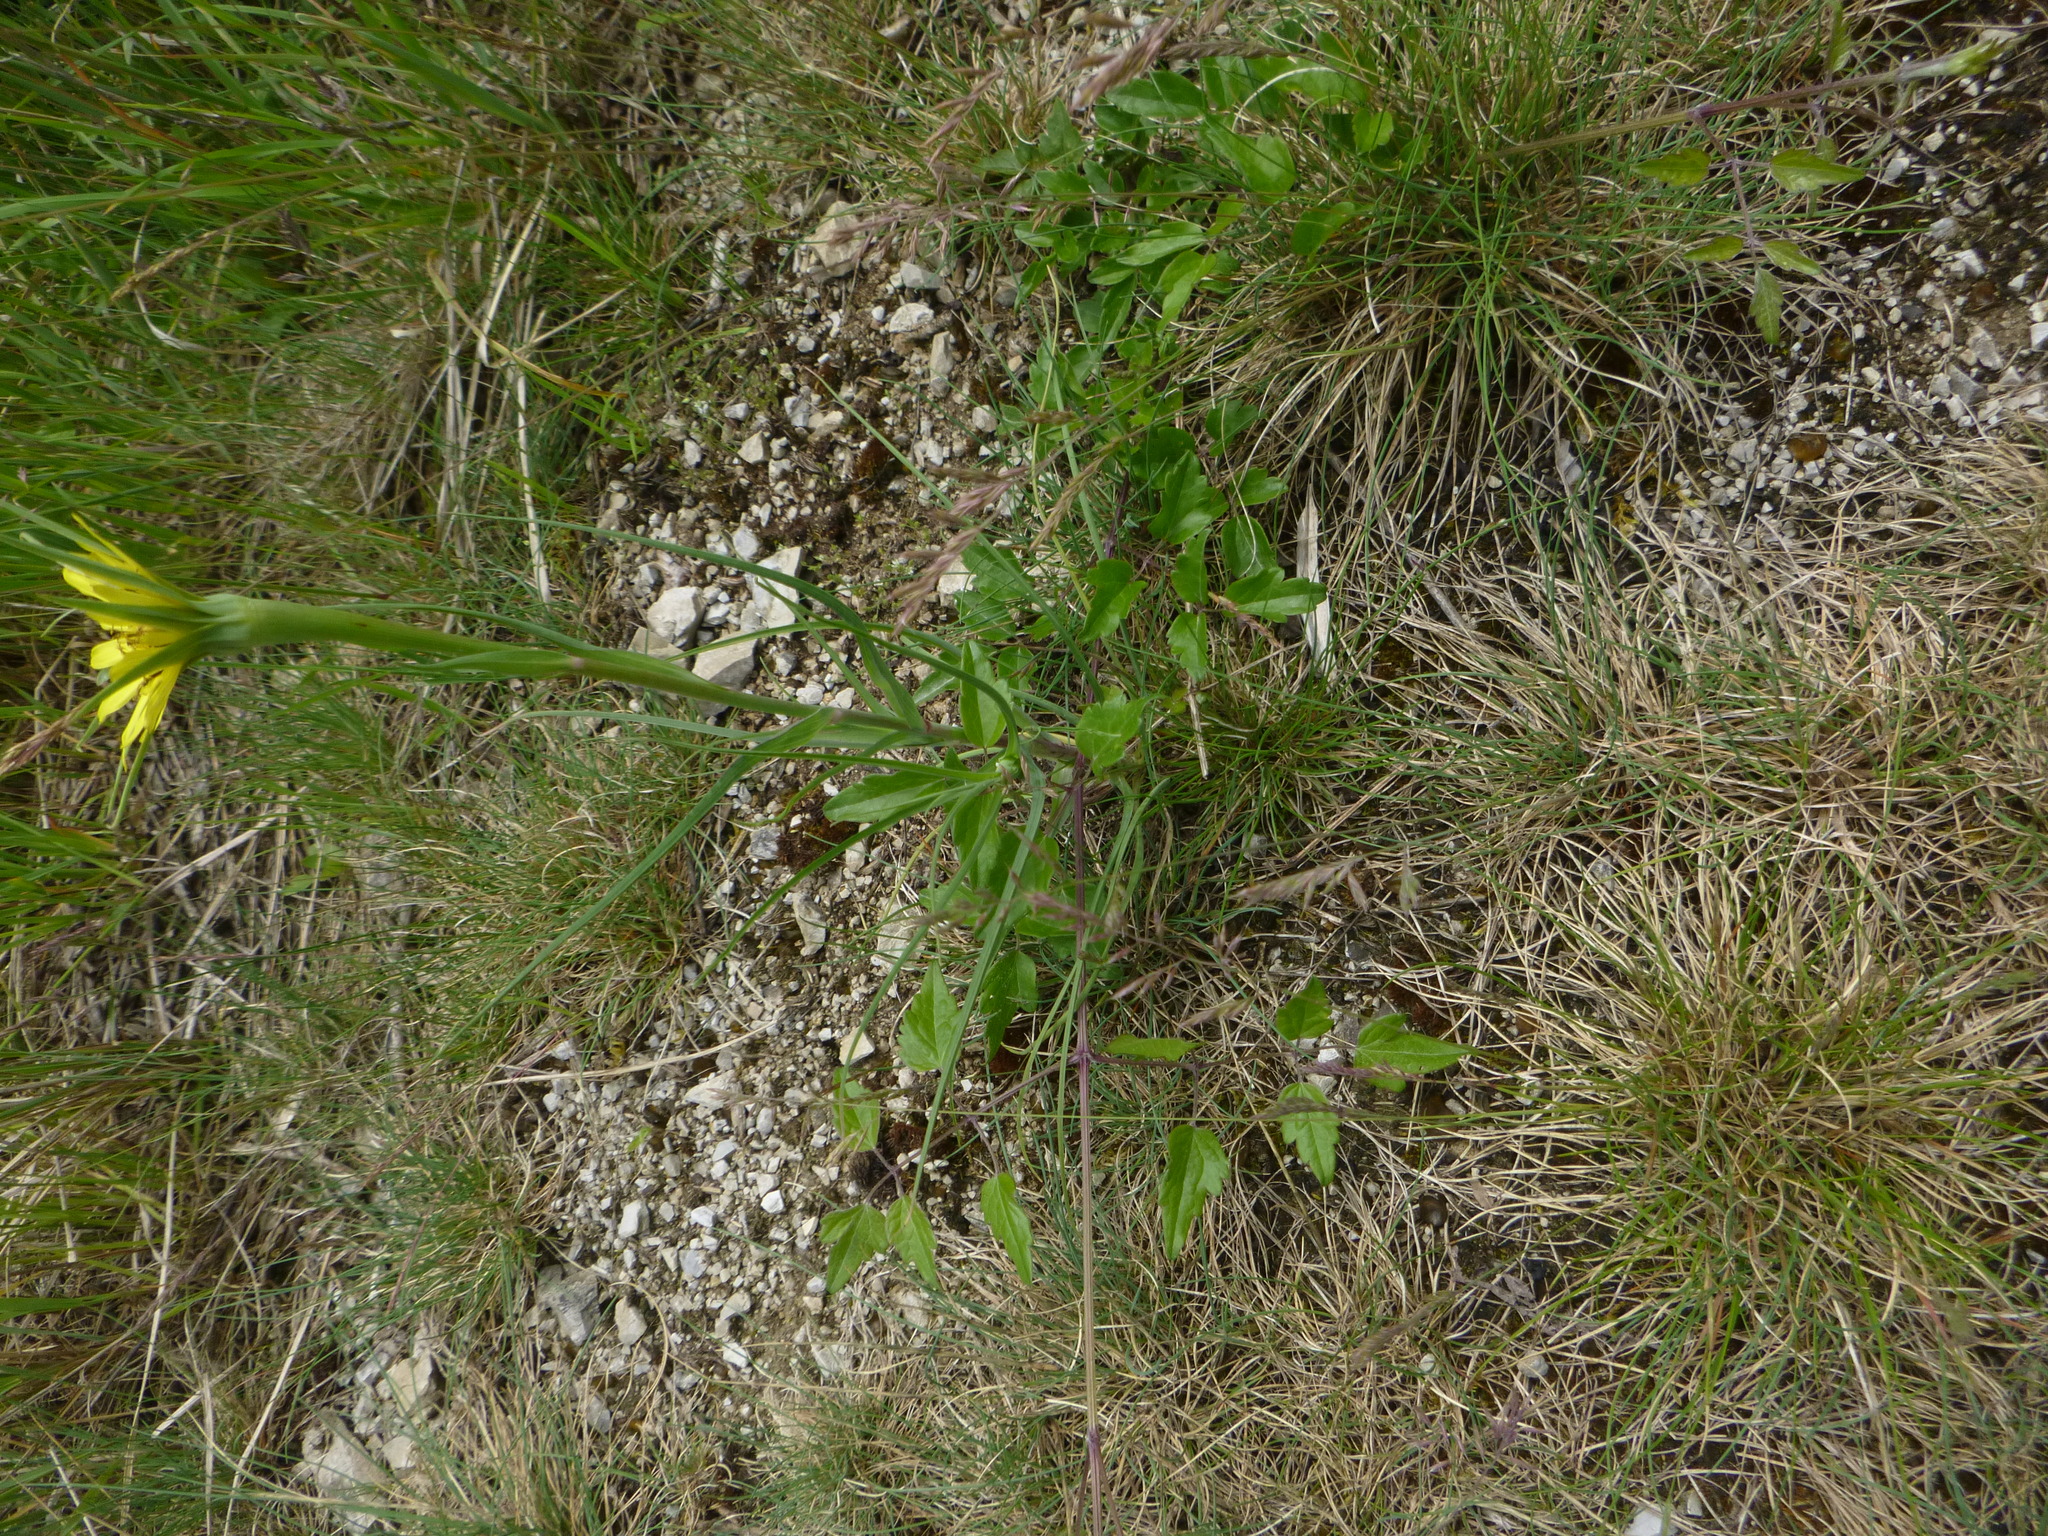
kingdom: Plantae
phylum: Tracheophyta
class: Magnoliopsida
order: Asterales
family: Asteraceae
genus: Tragopogon
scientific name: Tragopogon dubius
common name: Yellow salsify
